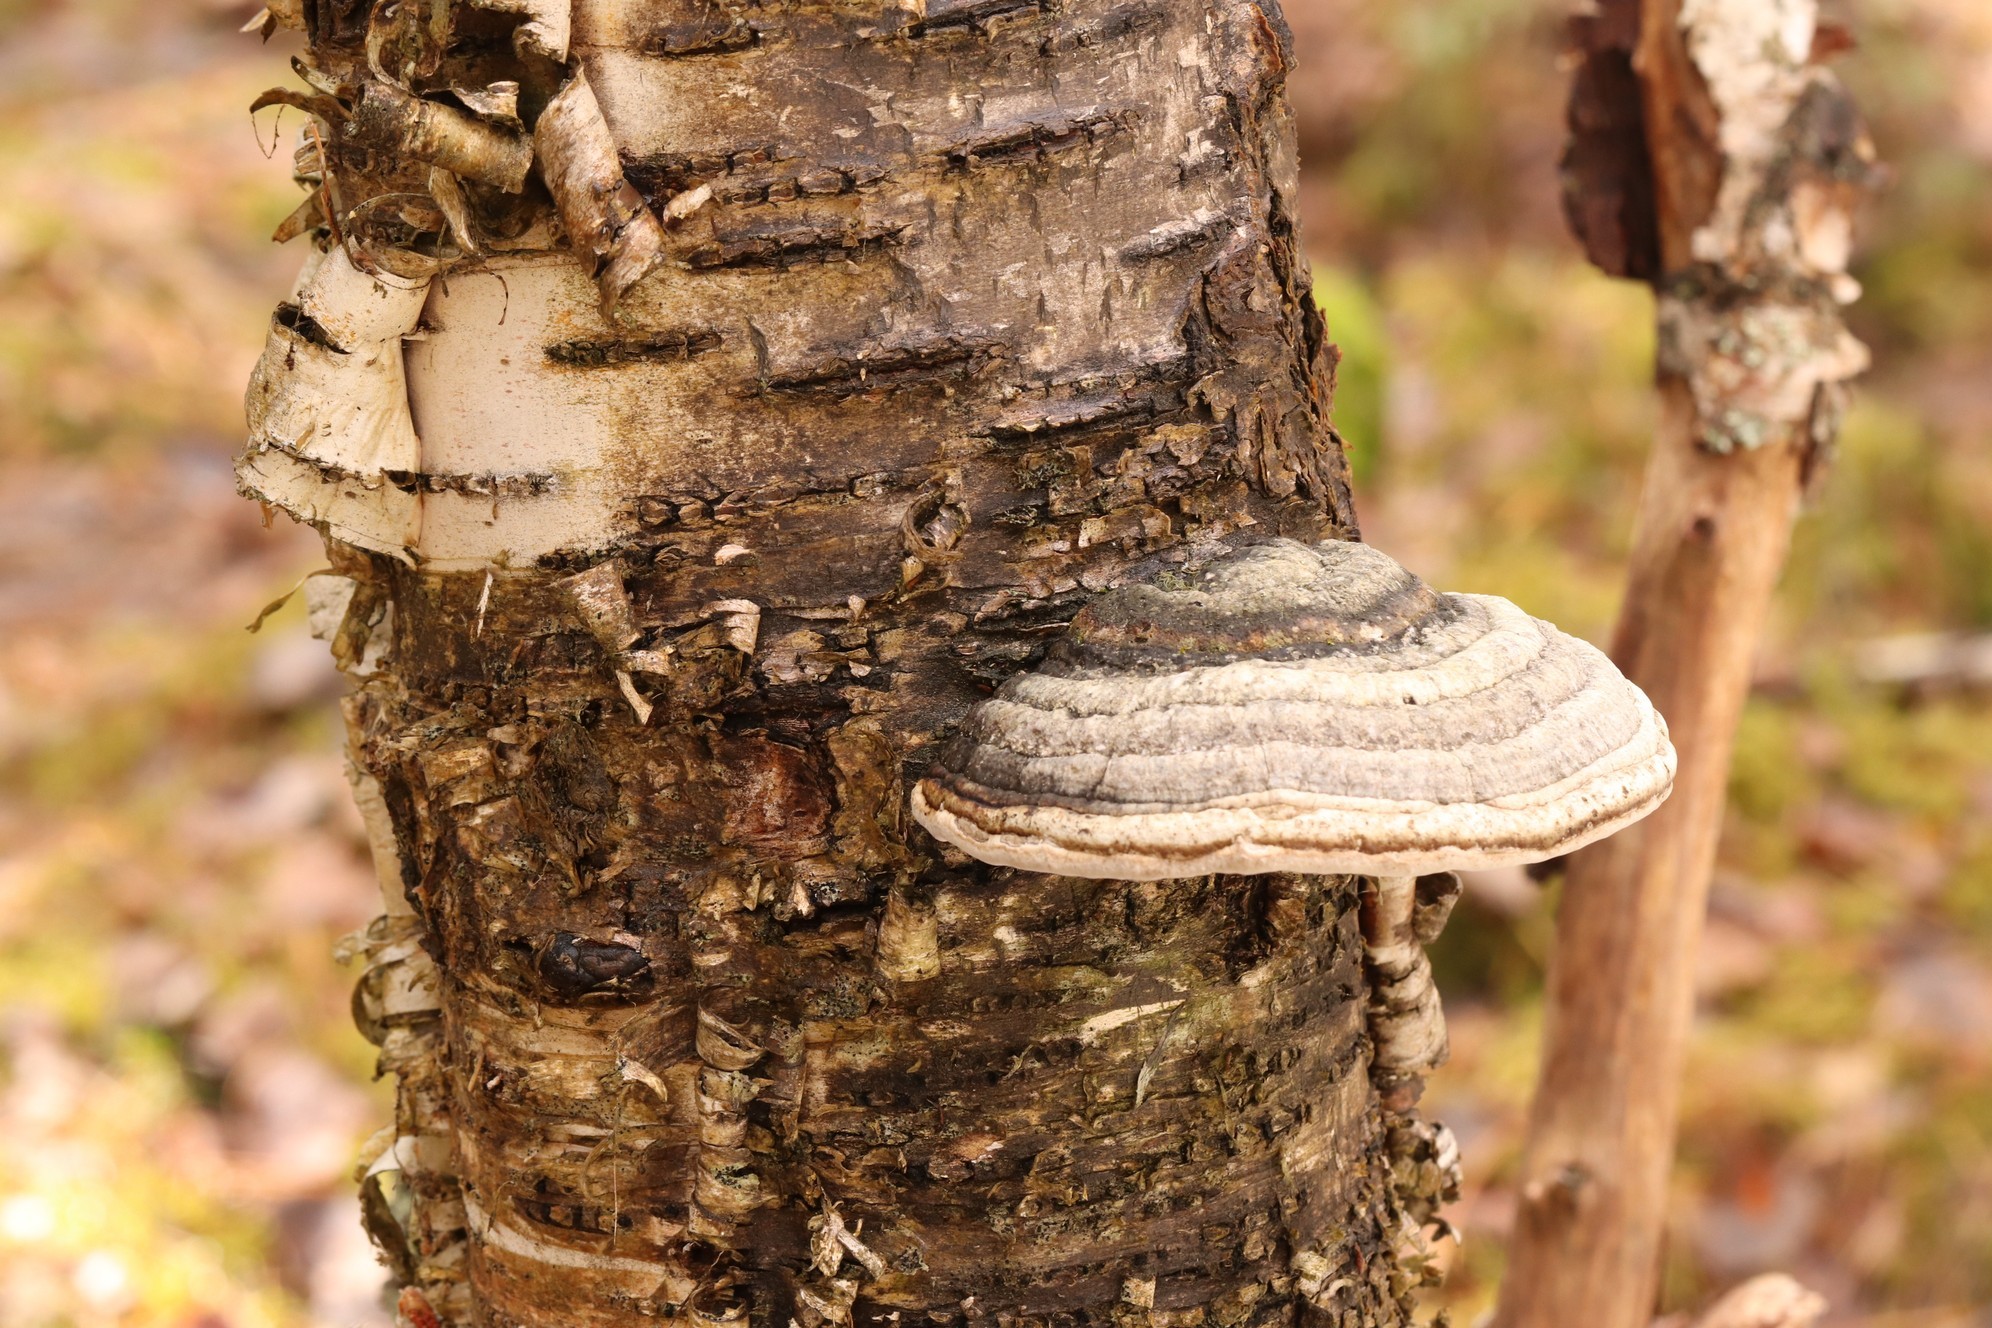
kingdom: Fungi
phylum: Basidiomycota
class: Agaricomycetes
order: Polyporales
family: Polyporaceae
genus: Fomes
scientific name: Fomes fomentarius
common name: Hoof fungus
